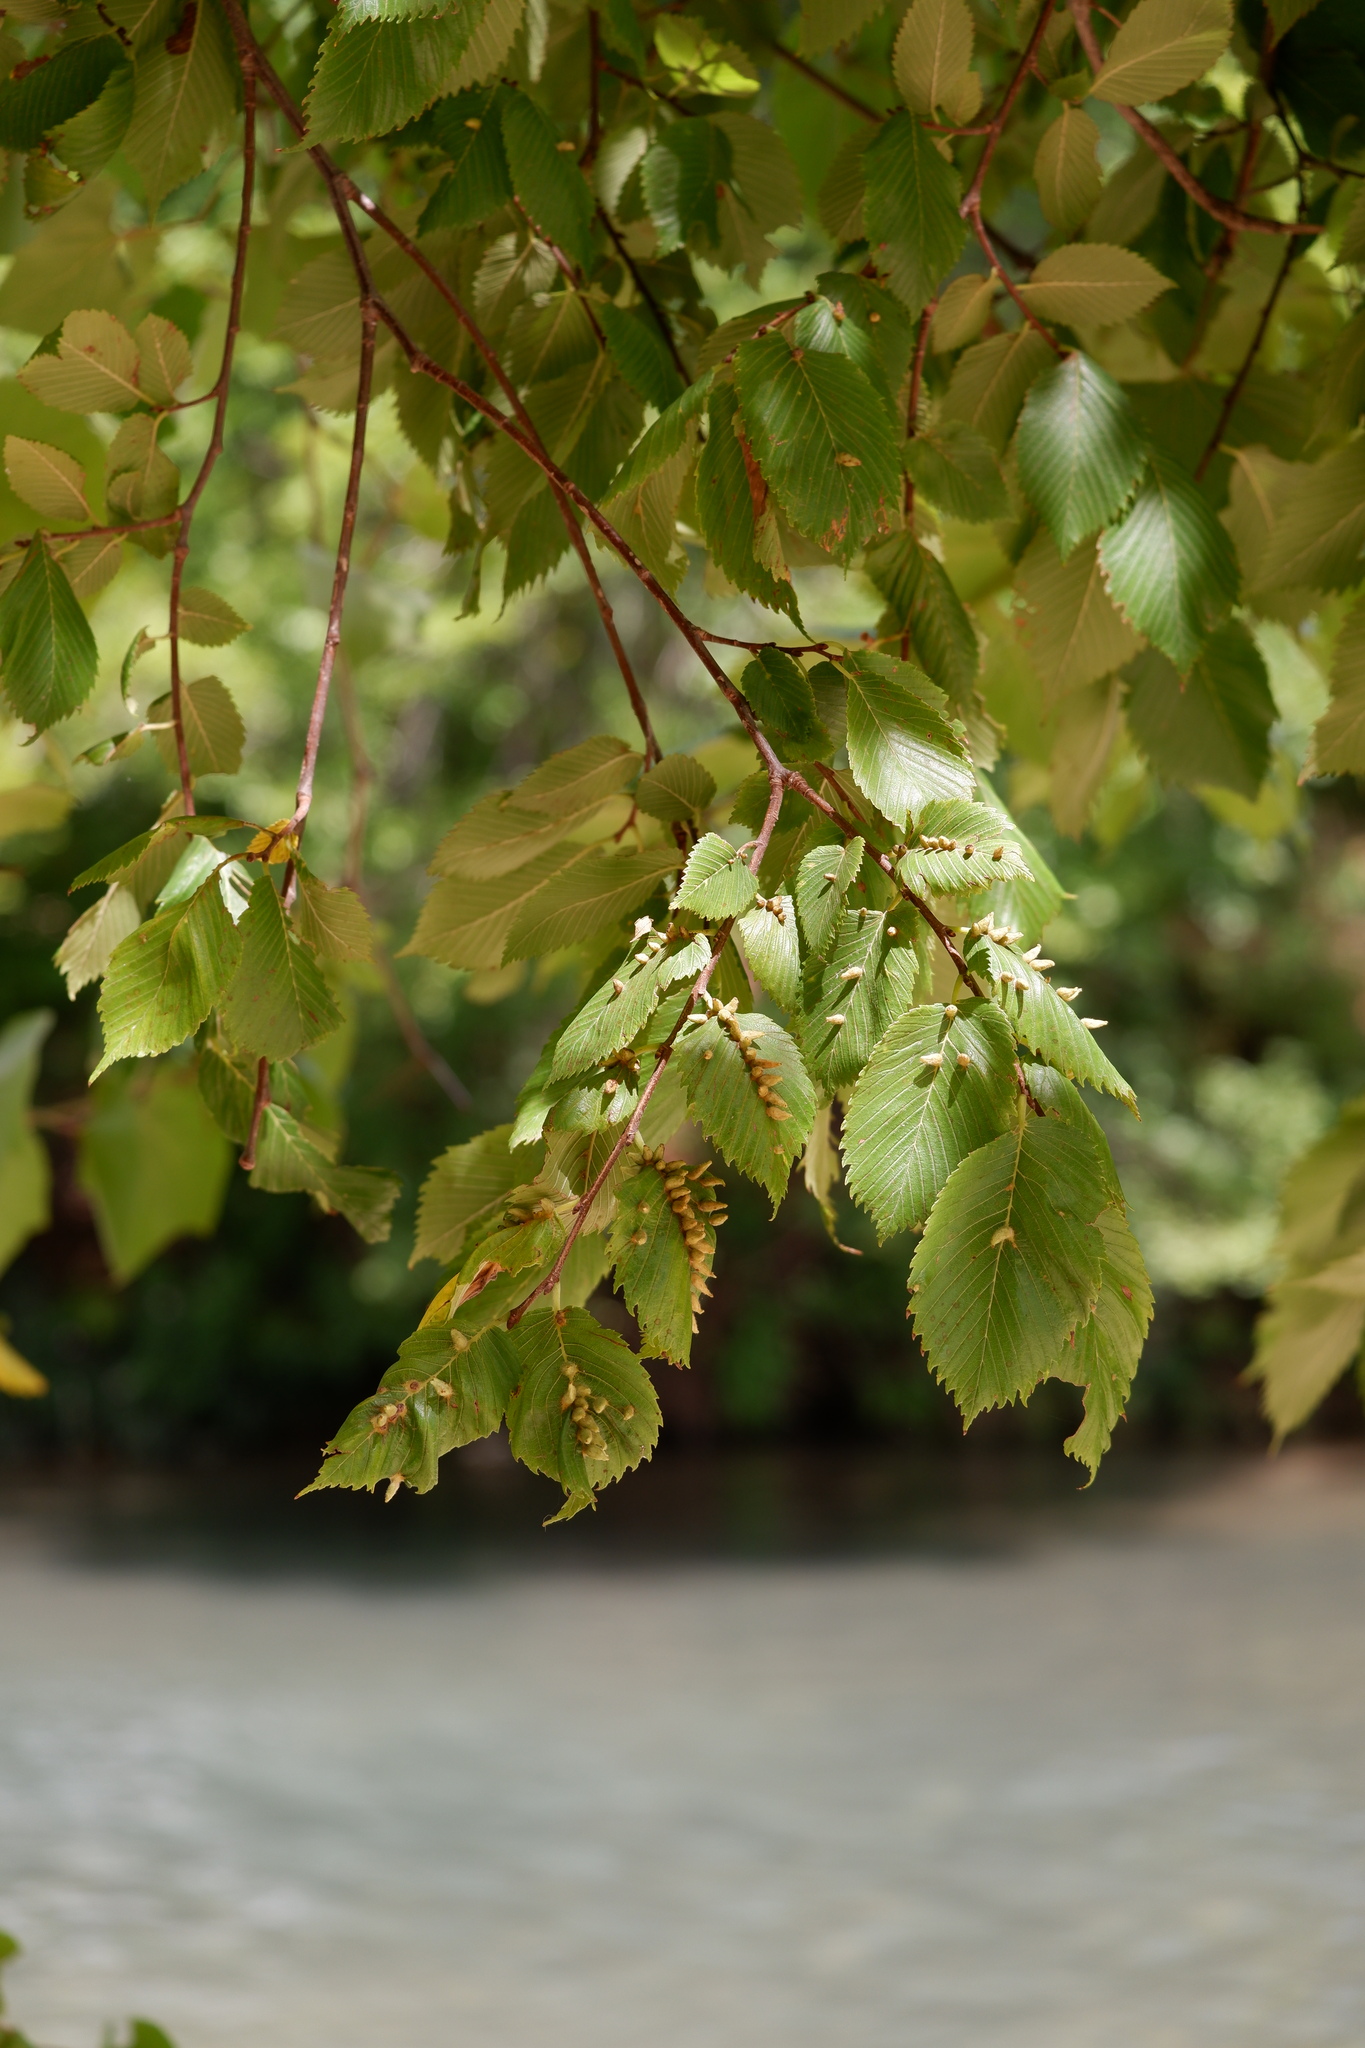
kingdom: Animalia
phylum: Arthropoda
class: Arachnida
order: Trombidiformes
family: Eriophyidae
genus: Aceria
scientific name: Aceria
